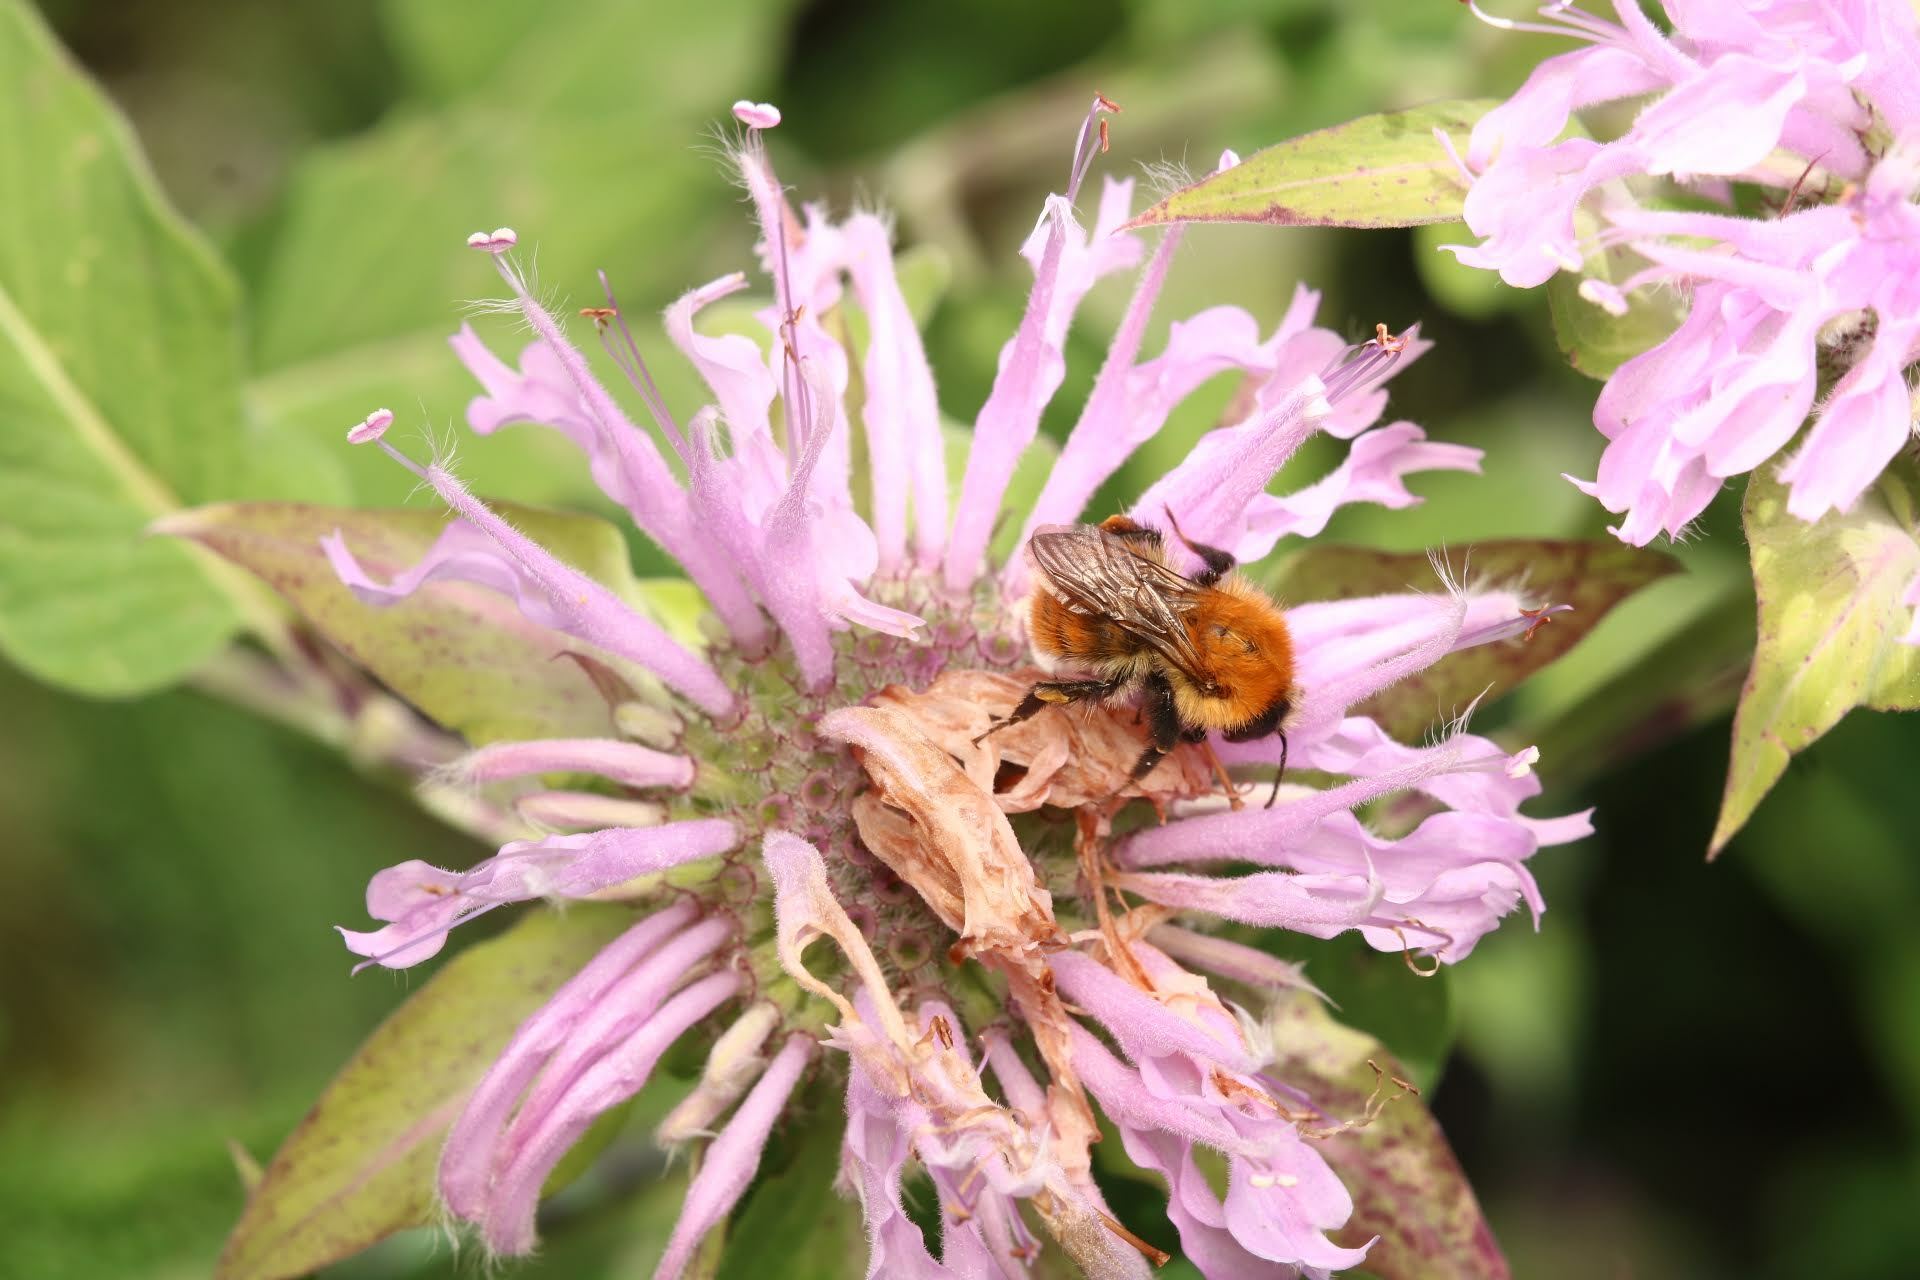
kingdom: Animalia
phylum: Arthropoda
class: Insecta
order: Hymenoptera
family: Apidae
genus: Bombus
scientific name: Bombus pascuorum
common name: Common carder bee
